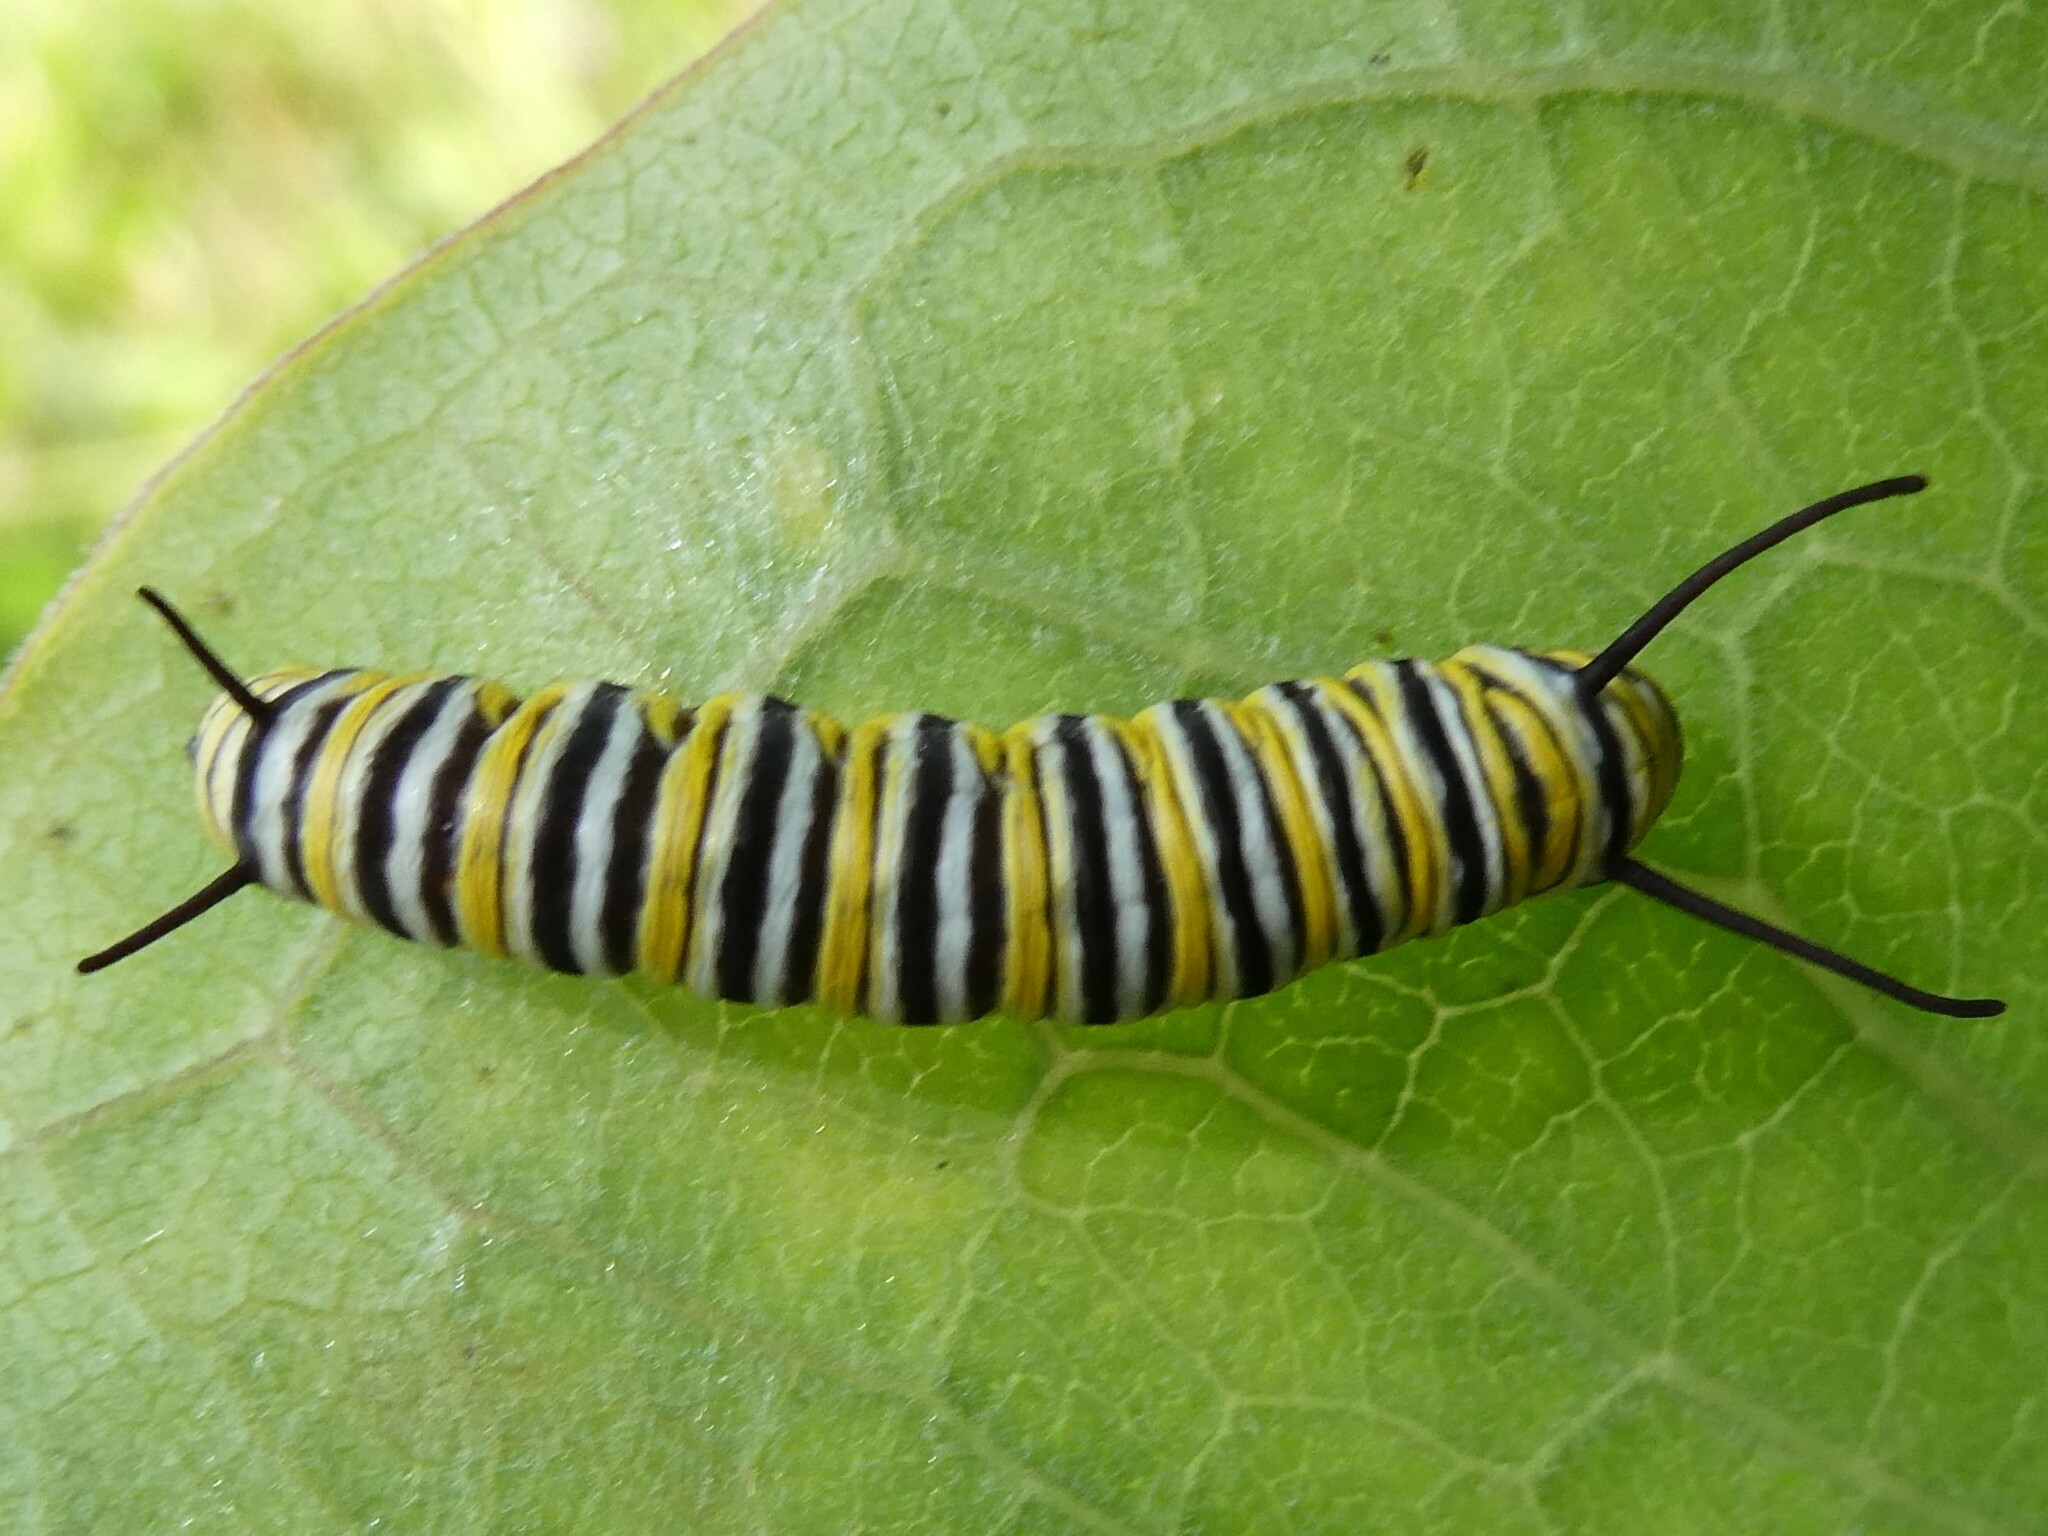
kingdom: Animalia
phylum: Arthropoda
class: Insecta
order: Lepidoptera
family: Nymphalidae
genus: Danaus
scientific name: Danaus plexippus
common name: Monarch
